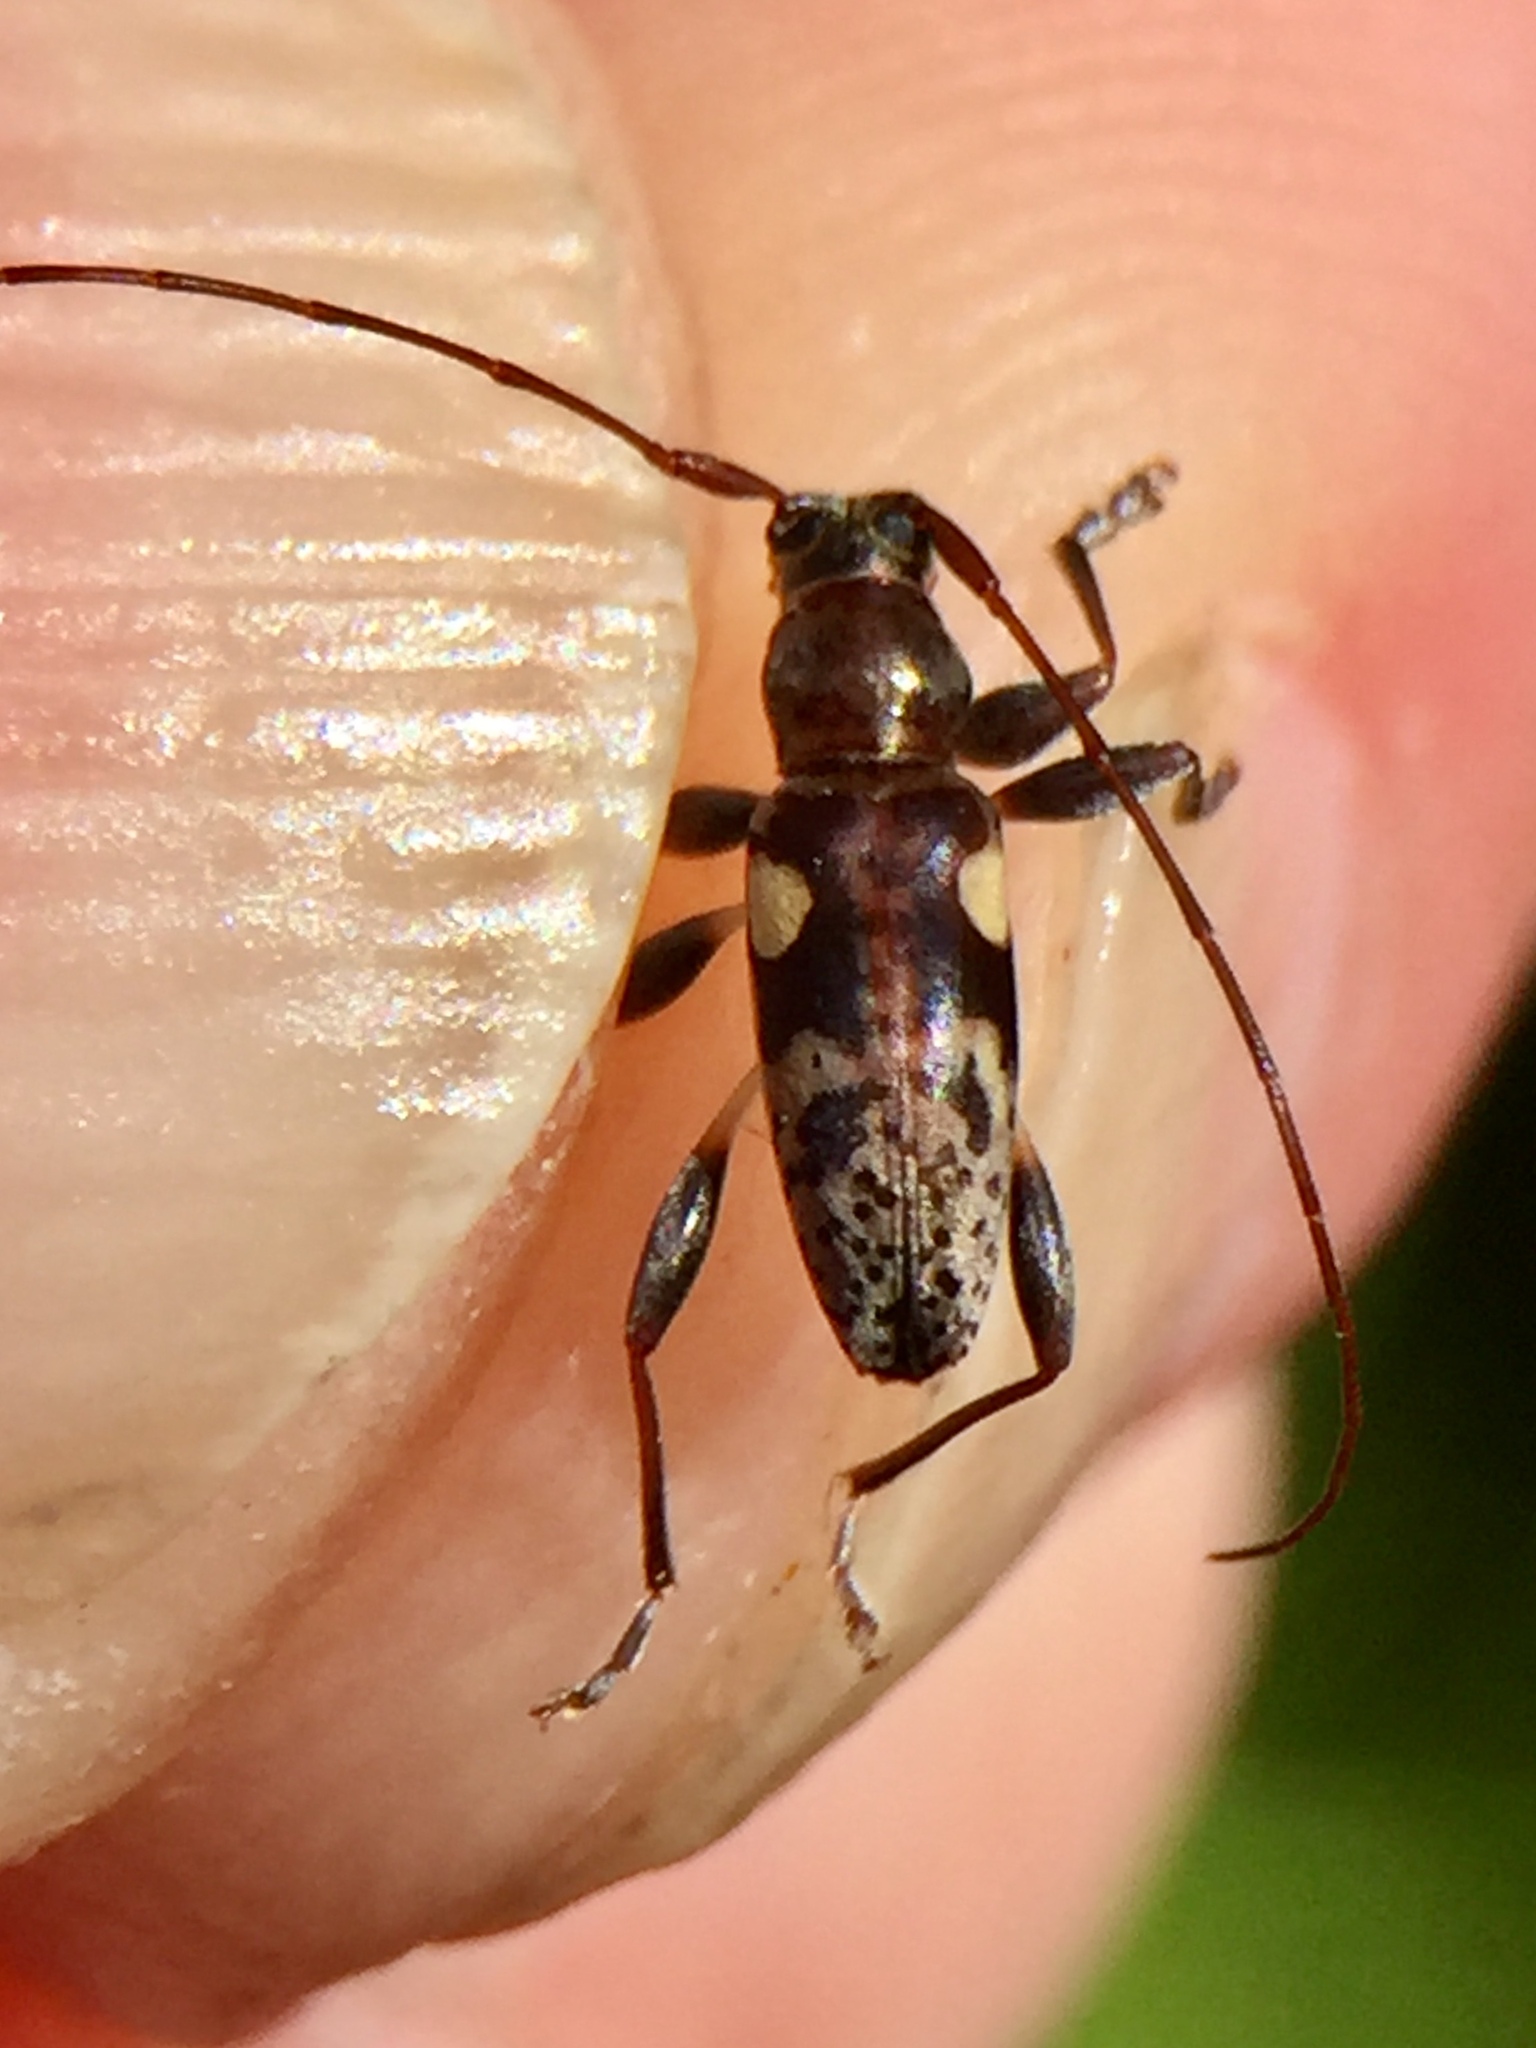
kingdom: Animalia
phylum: Arthropoda
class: Insecta
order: Coleoptera
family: Cerambycidae
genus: Stenellipsis
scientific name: Stenellipsis bimaculata
